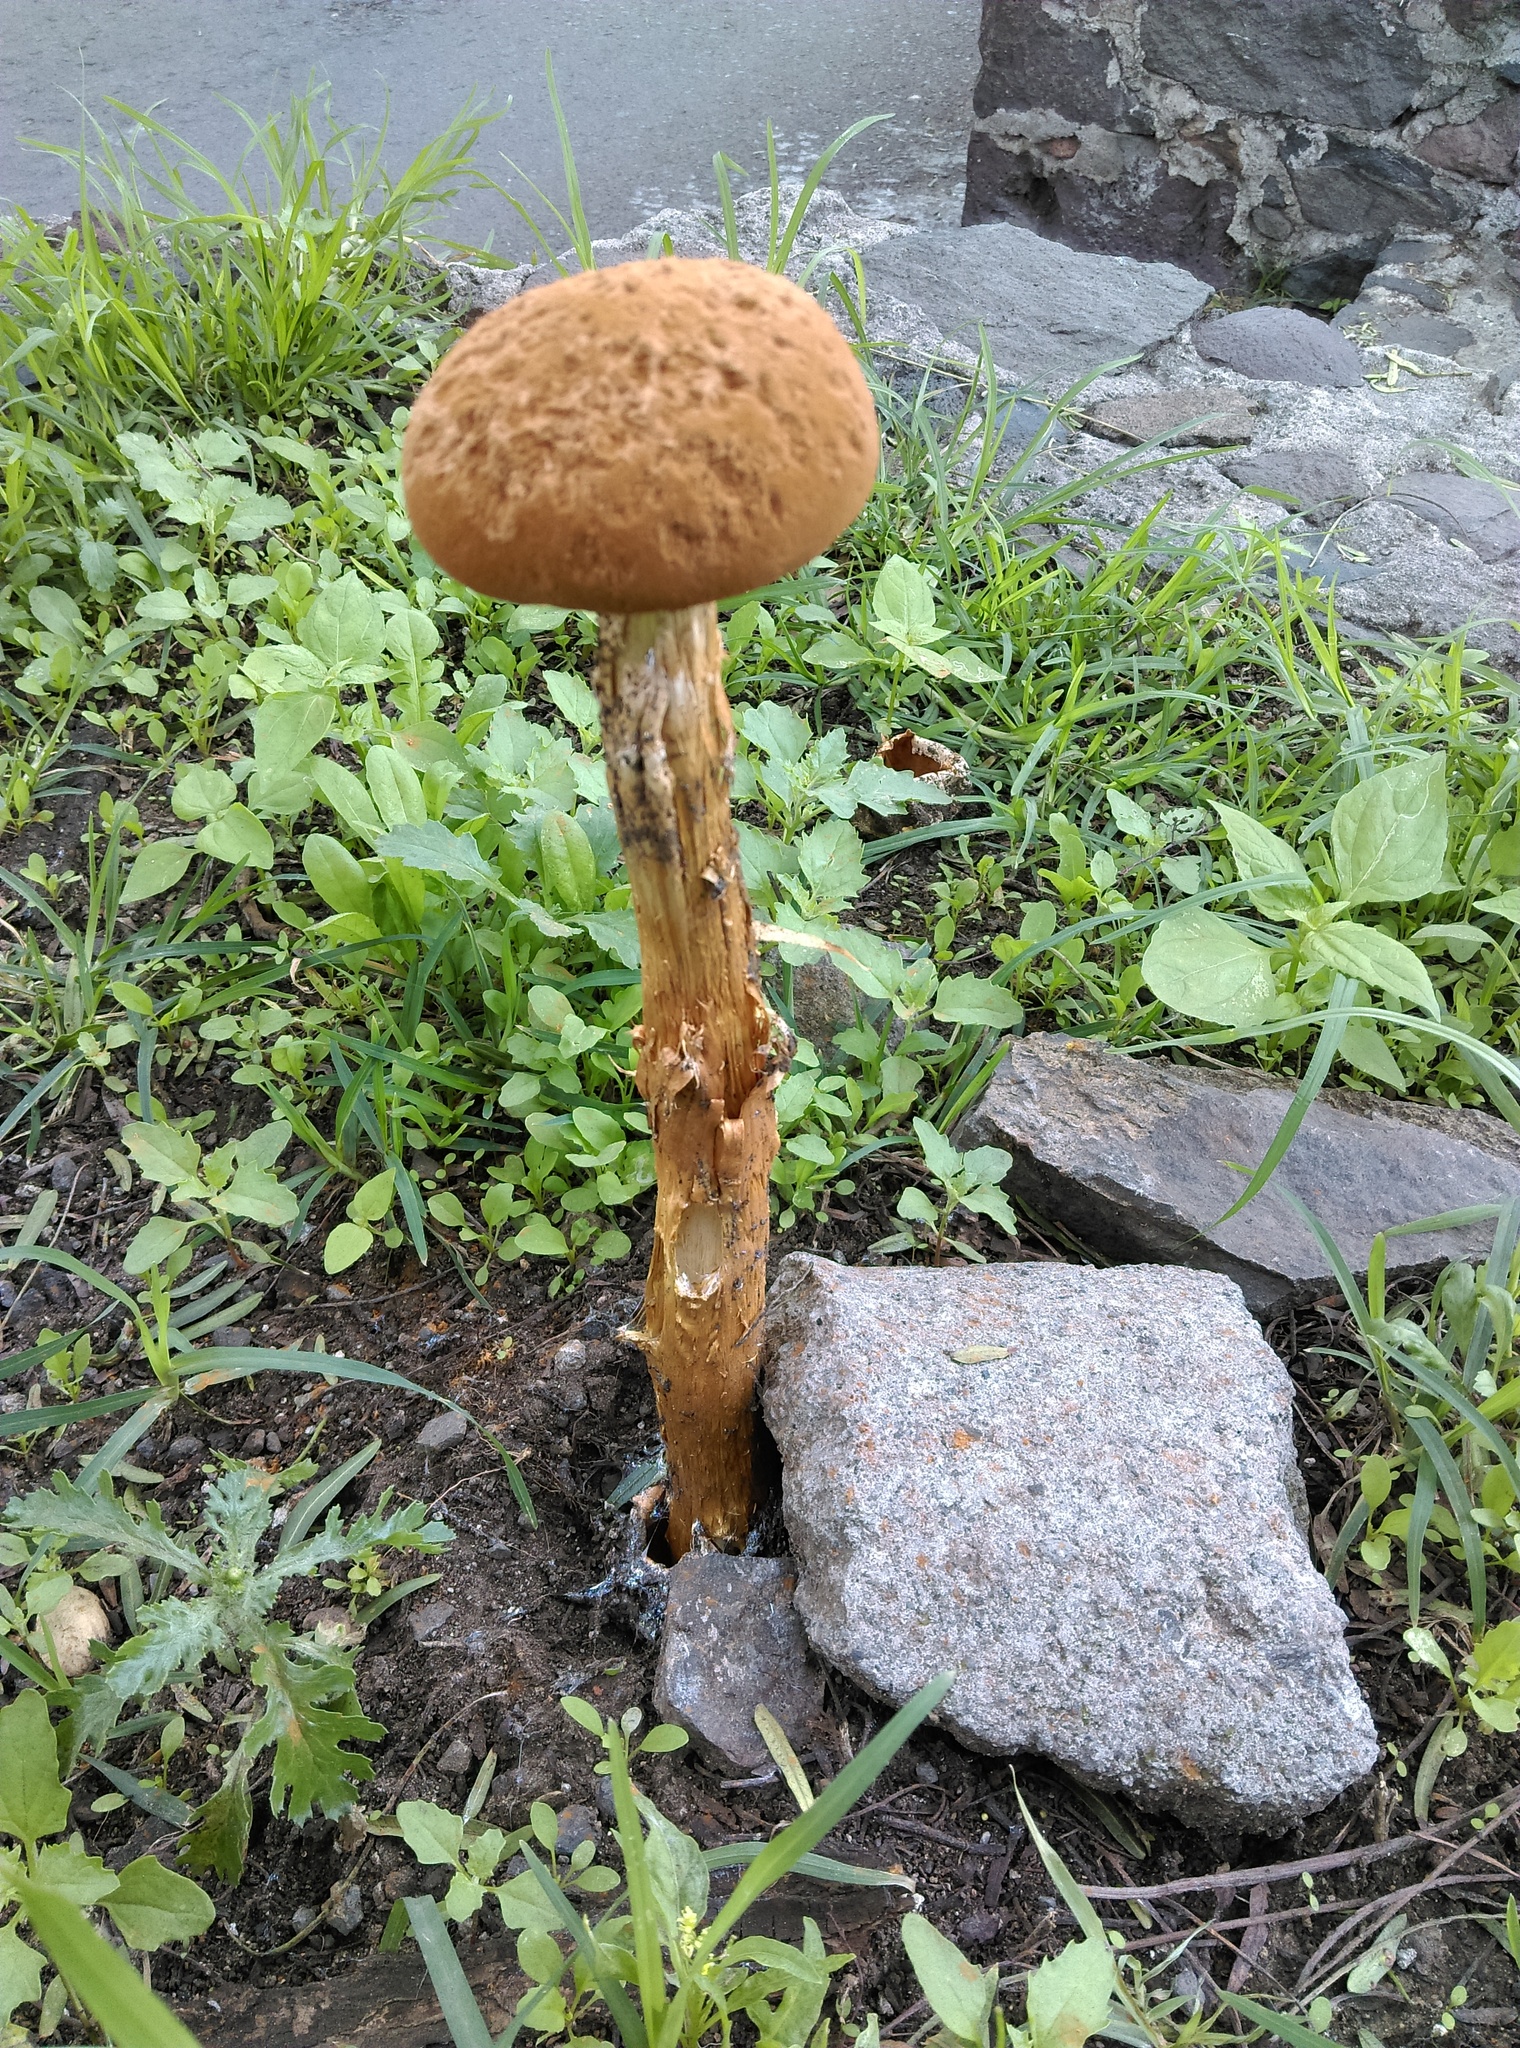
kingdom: Fungi
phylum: Basidiomycota
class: Agaricomycetes
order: Agaricales
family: Agaricaceae
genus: Battarrea
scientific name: Battarrea phalloides
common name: Sandy stiltball
